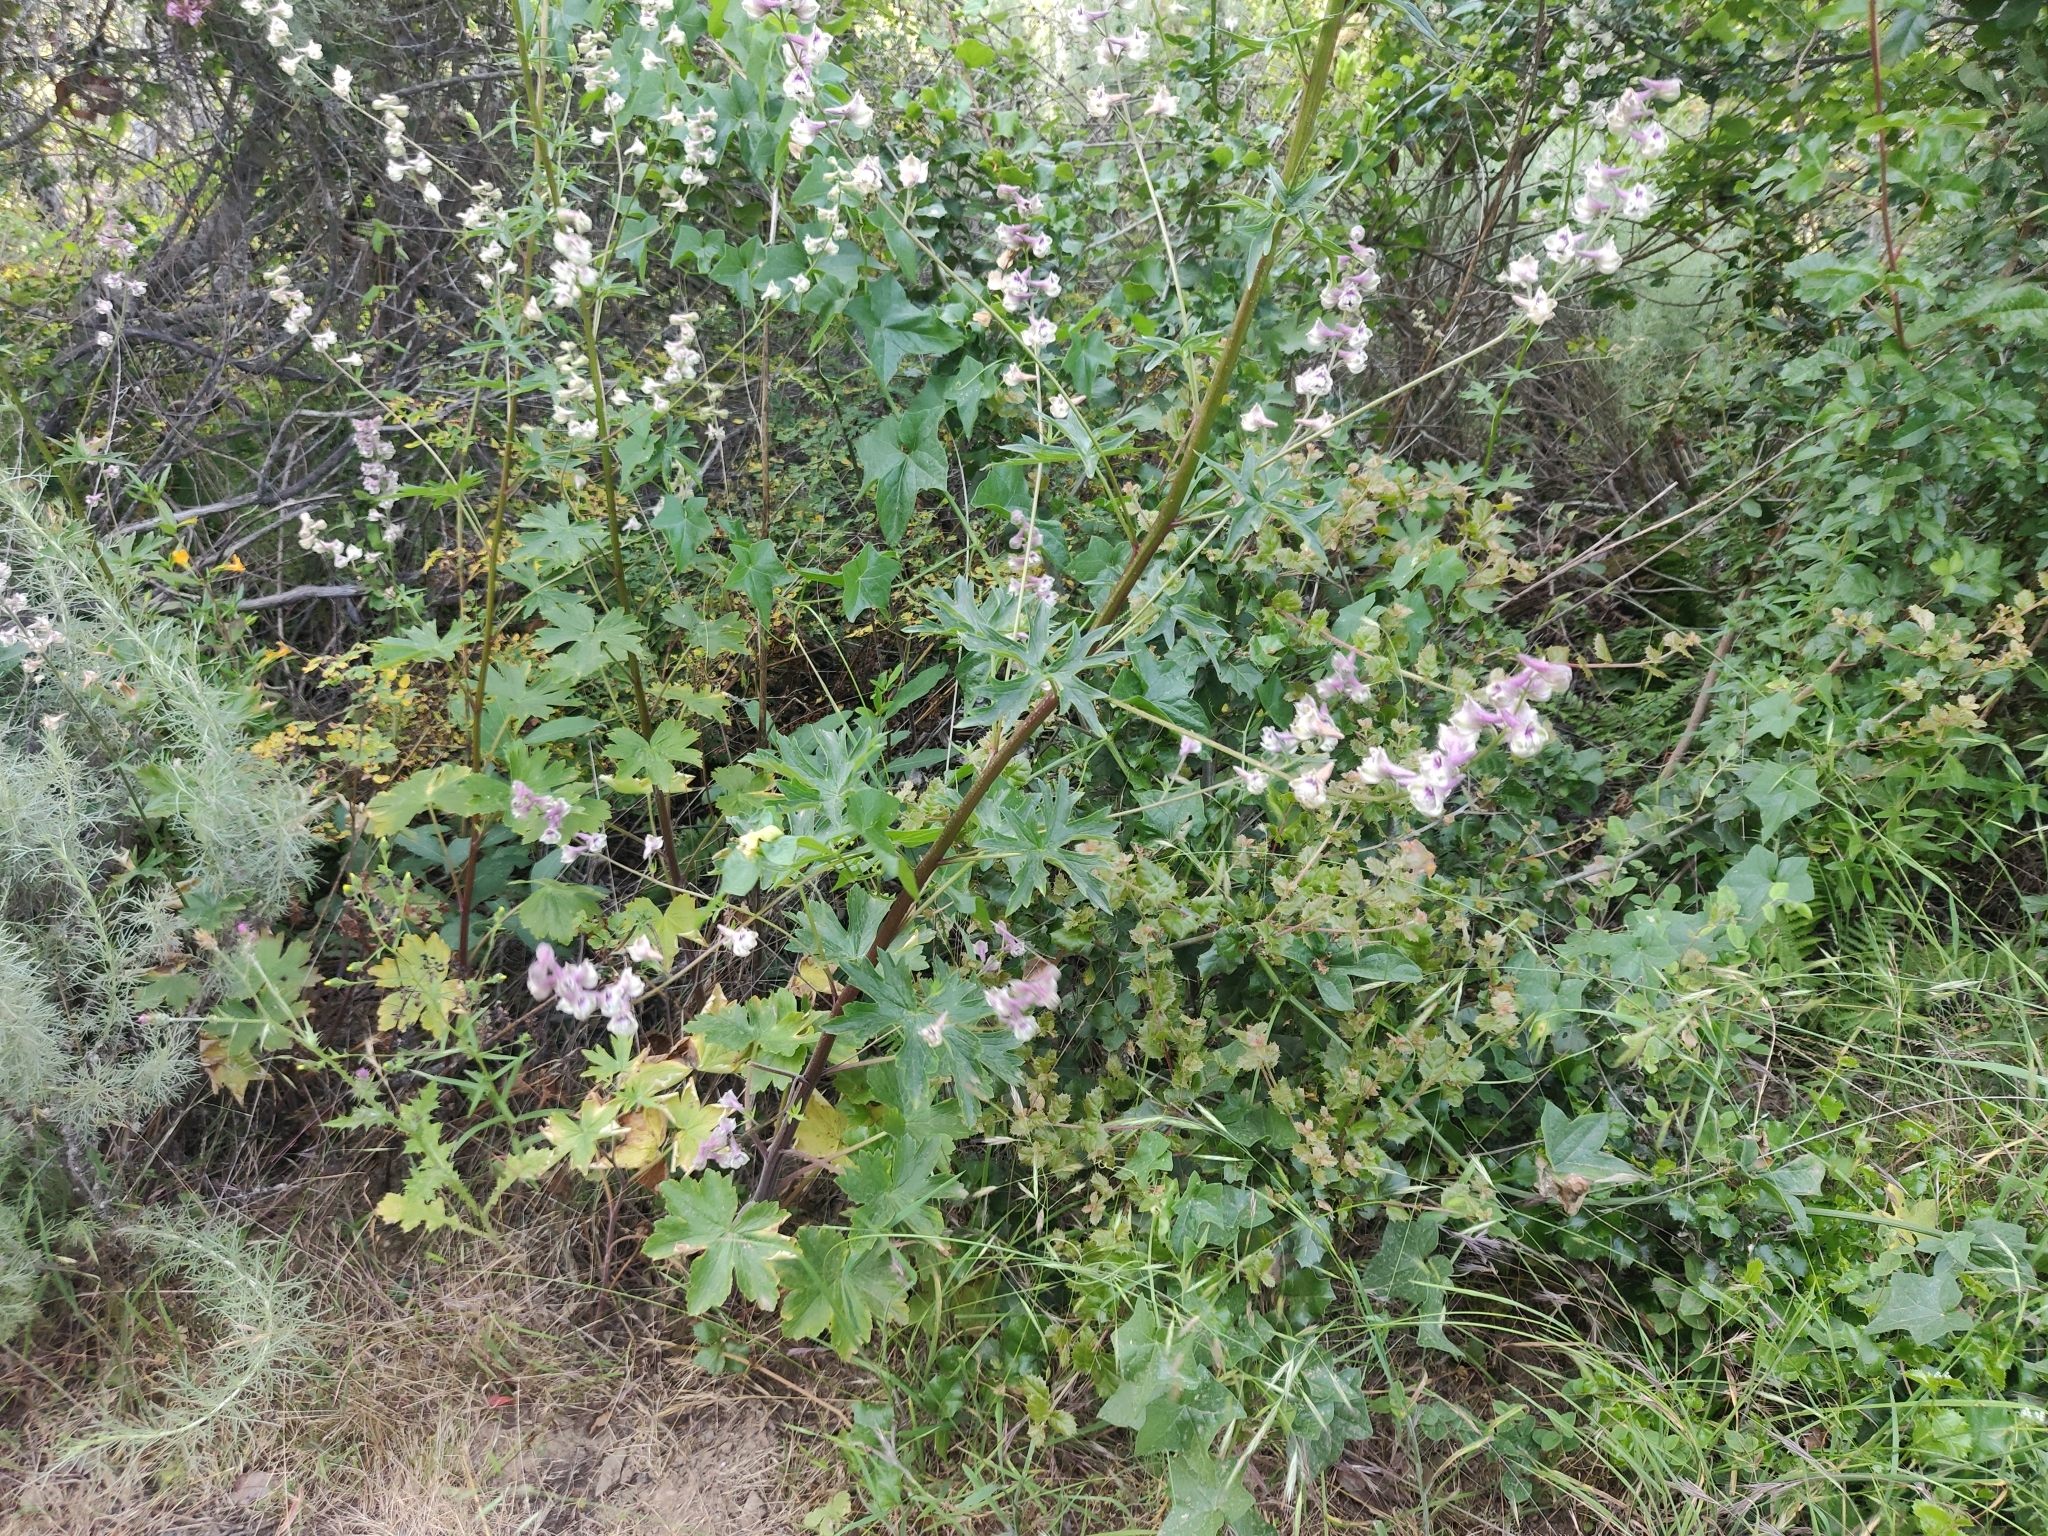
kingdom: Plantae
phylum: Tracheophyta
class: Magnoliopsida
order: Ranunculales
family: Ranunculaceae
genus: Delphinium
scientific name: Delphinium californicum
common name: California larkspur
